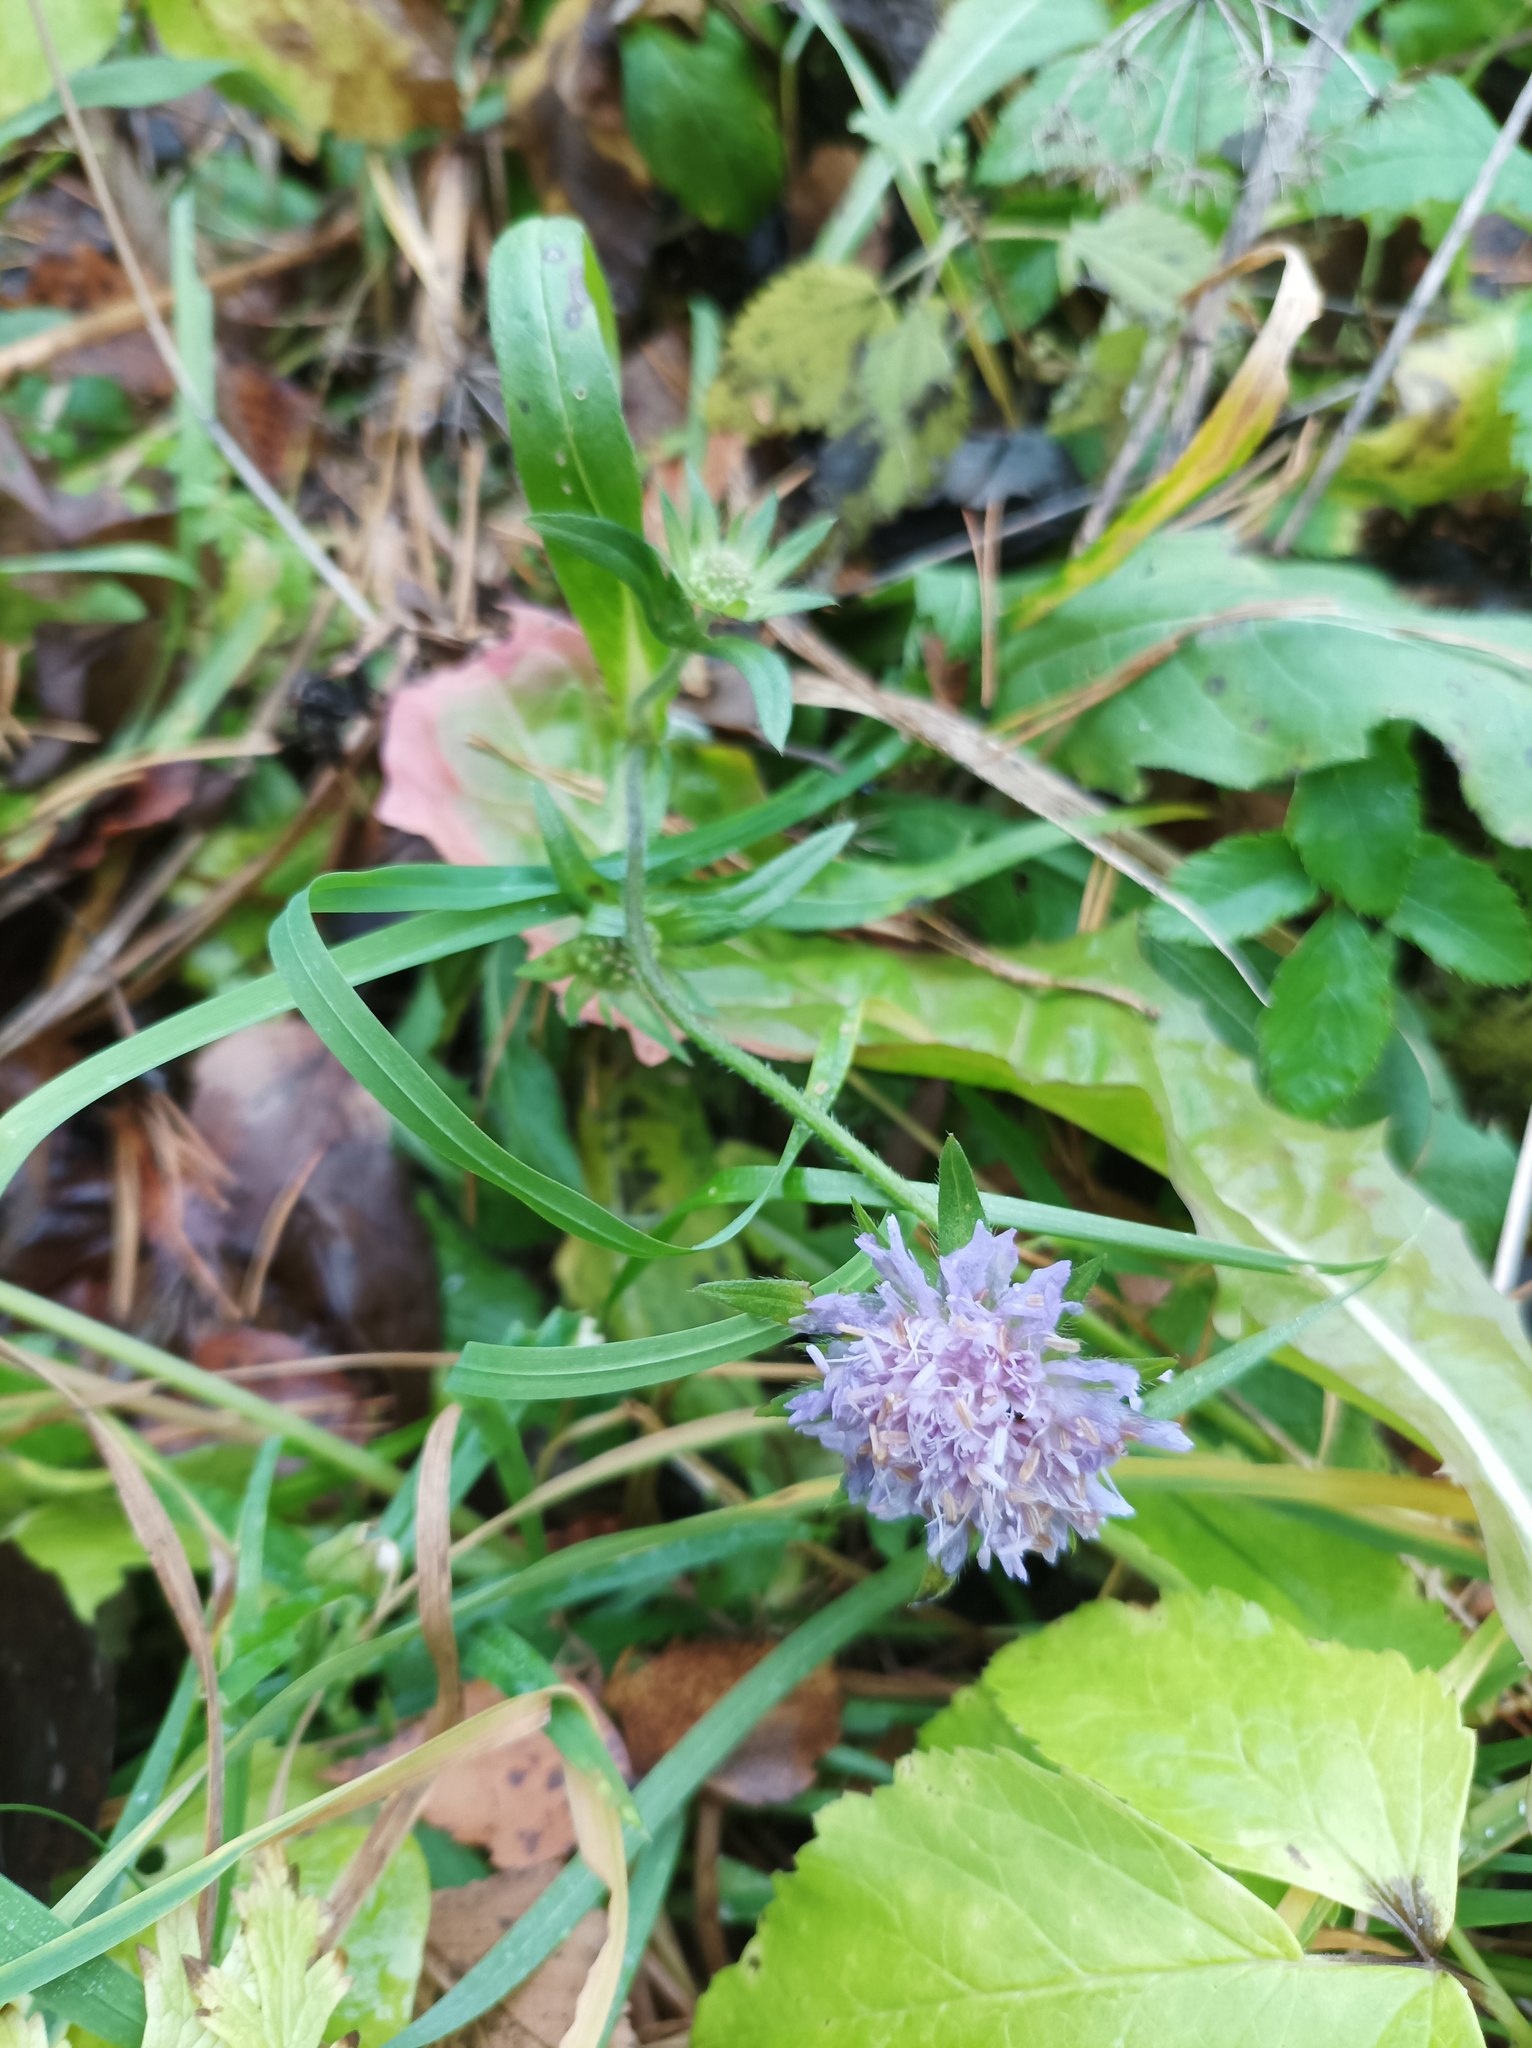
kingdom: Plantae
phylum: Tracheophyta
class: Magnoliopsida
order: Dipsacales
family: Caprifoliaceae
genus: Knautia
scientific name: Knautia arvensis
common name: Field scabiosa
